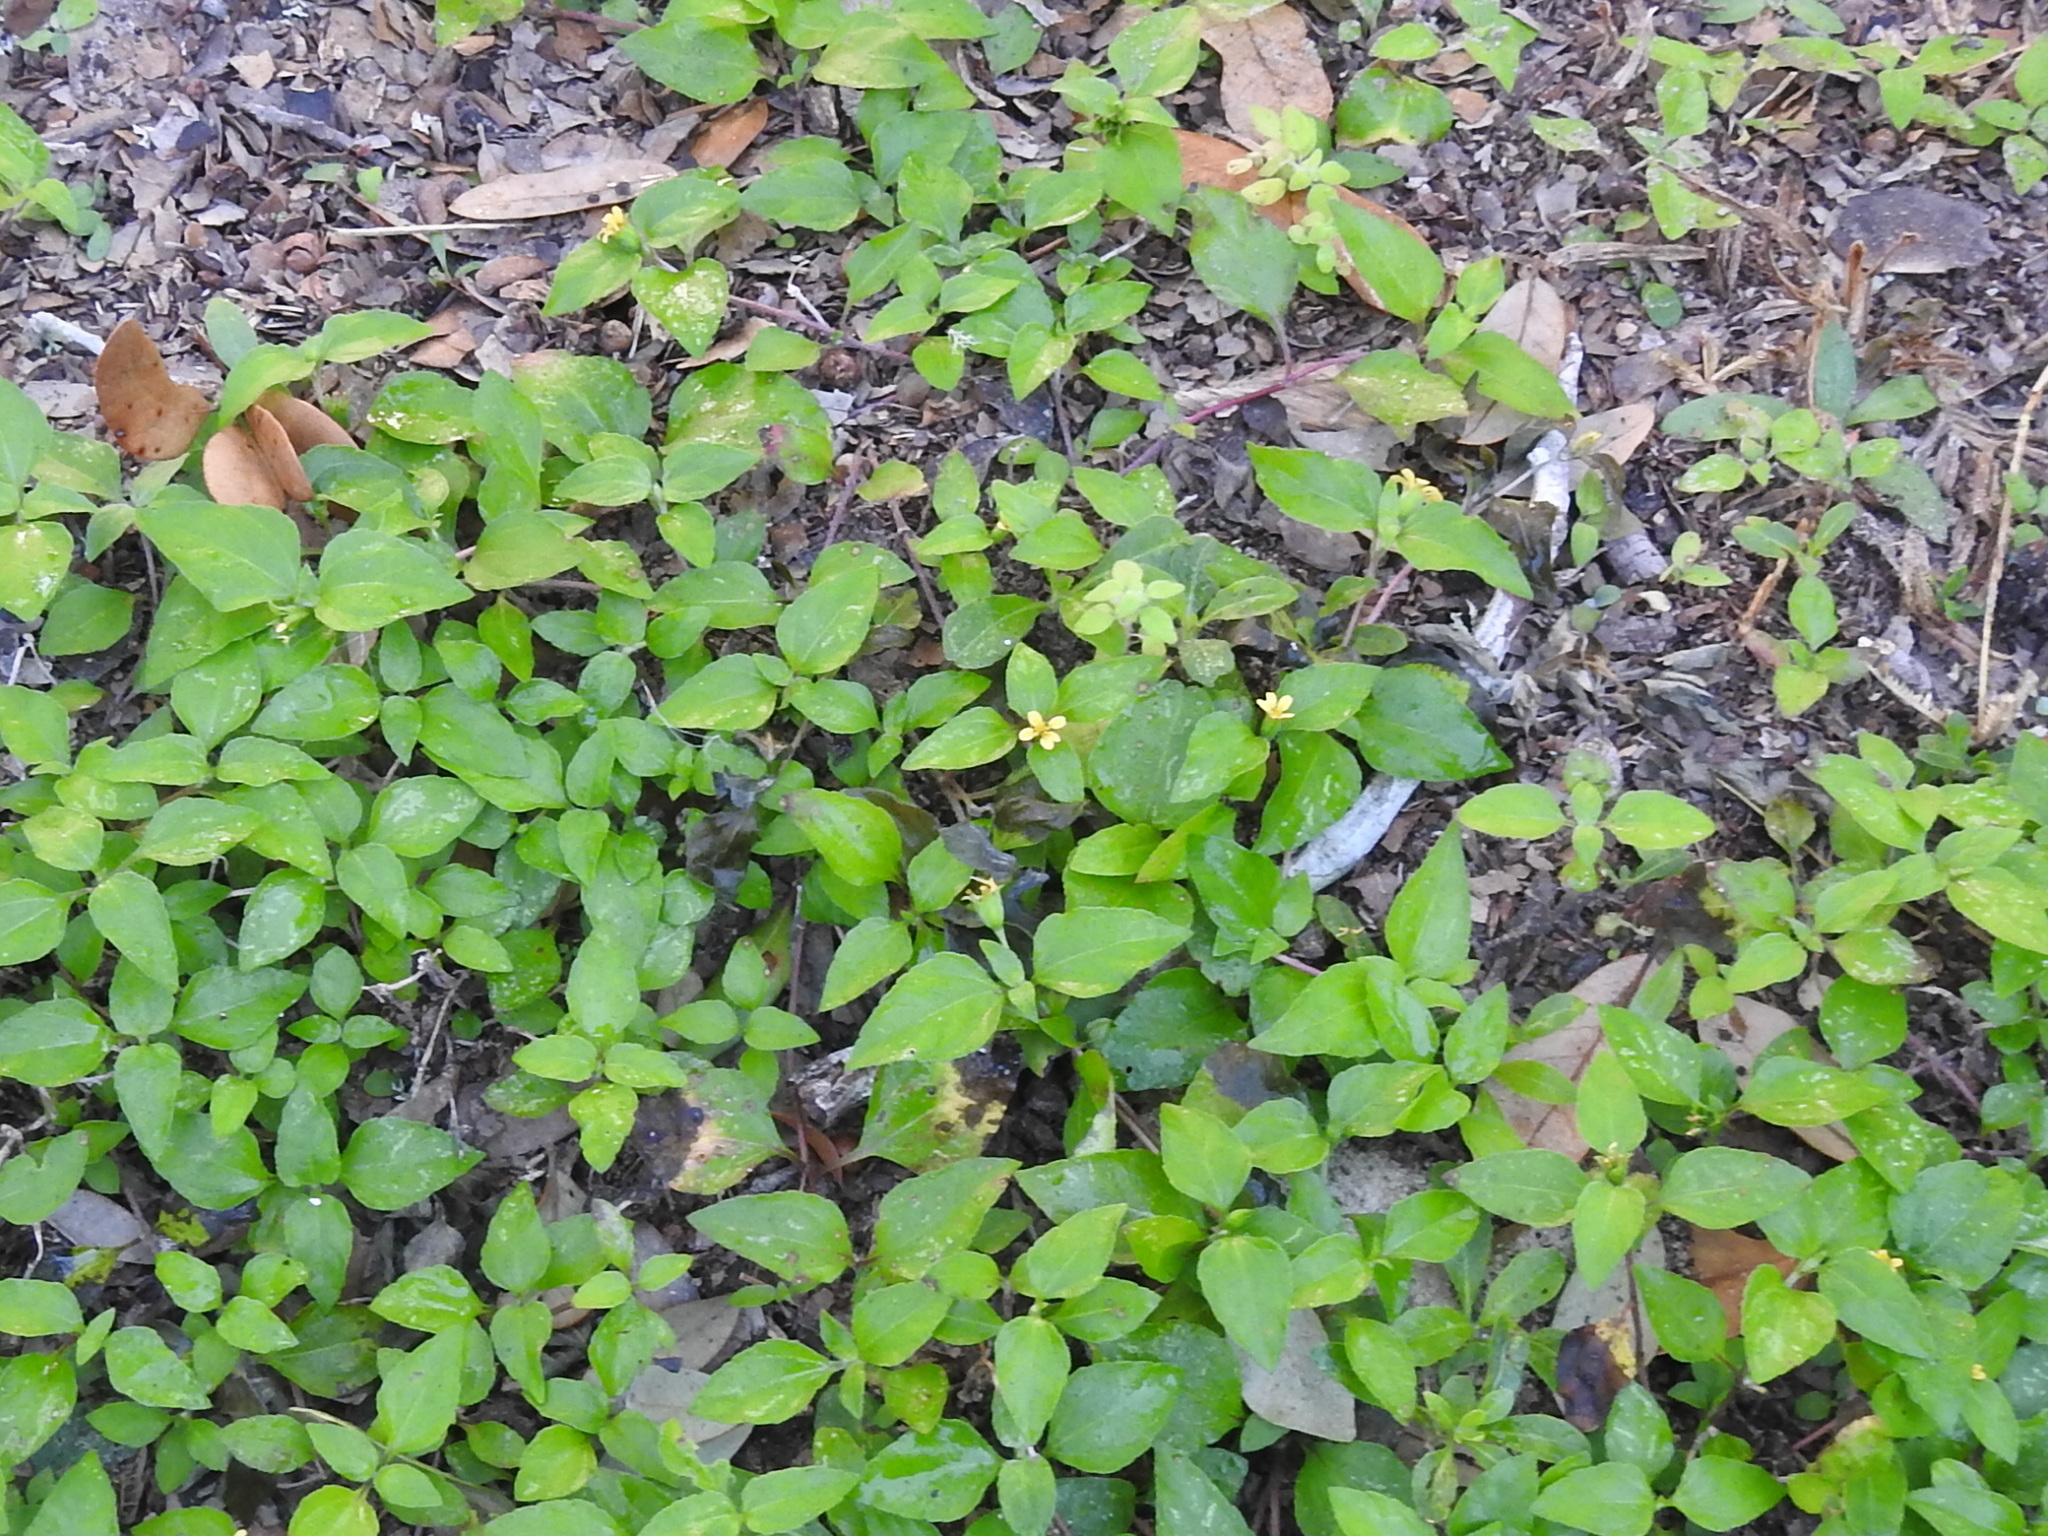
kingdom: Plantae
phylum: Tracheophyta
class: Magnoliopsida
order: Asterales
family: Asteraceae
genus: Calyptocarpus
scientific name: Calyptocarpus vialis
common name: Straggler daisy
